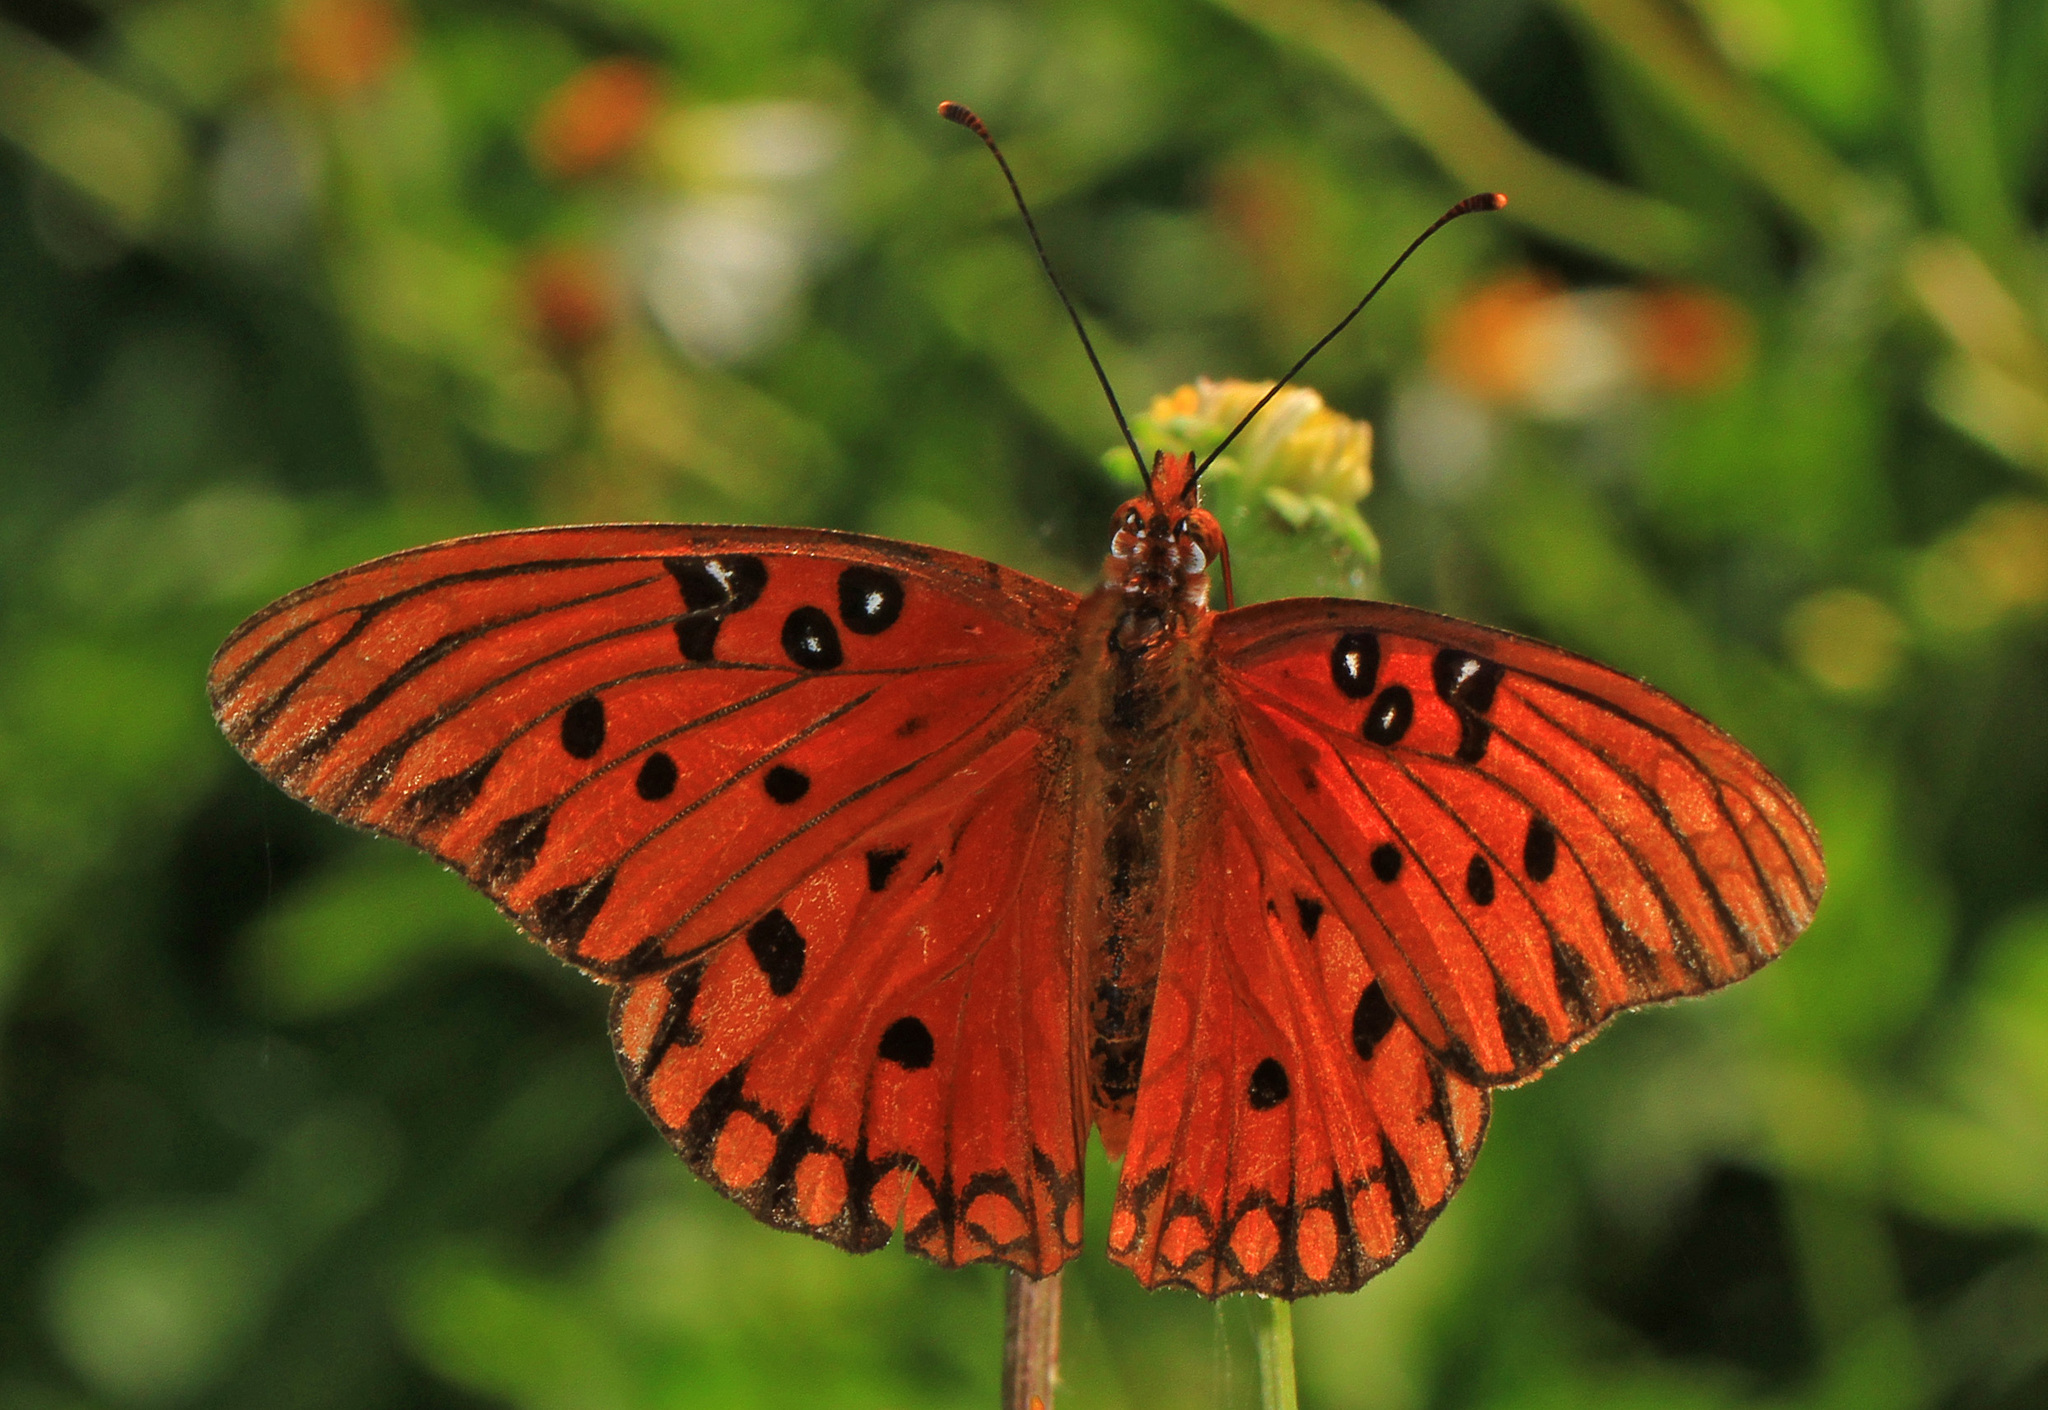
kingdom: Animalia
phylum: Arthropoda
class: Insecta
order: Lepidoptera
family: Nymphalidae
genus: Dione
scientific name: Dione vanillae
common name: Gulf fritillary
